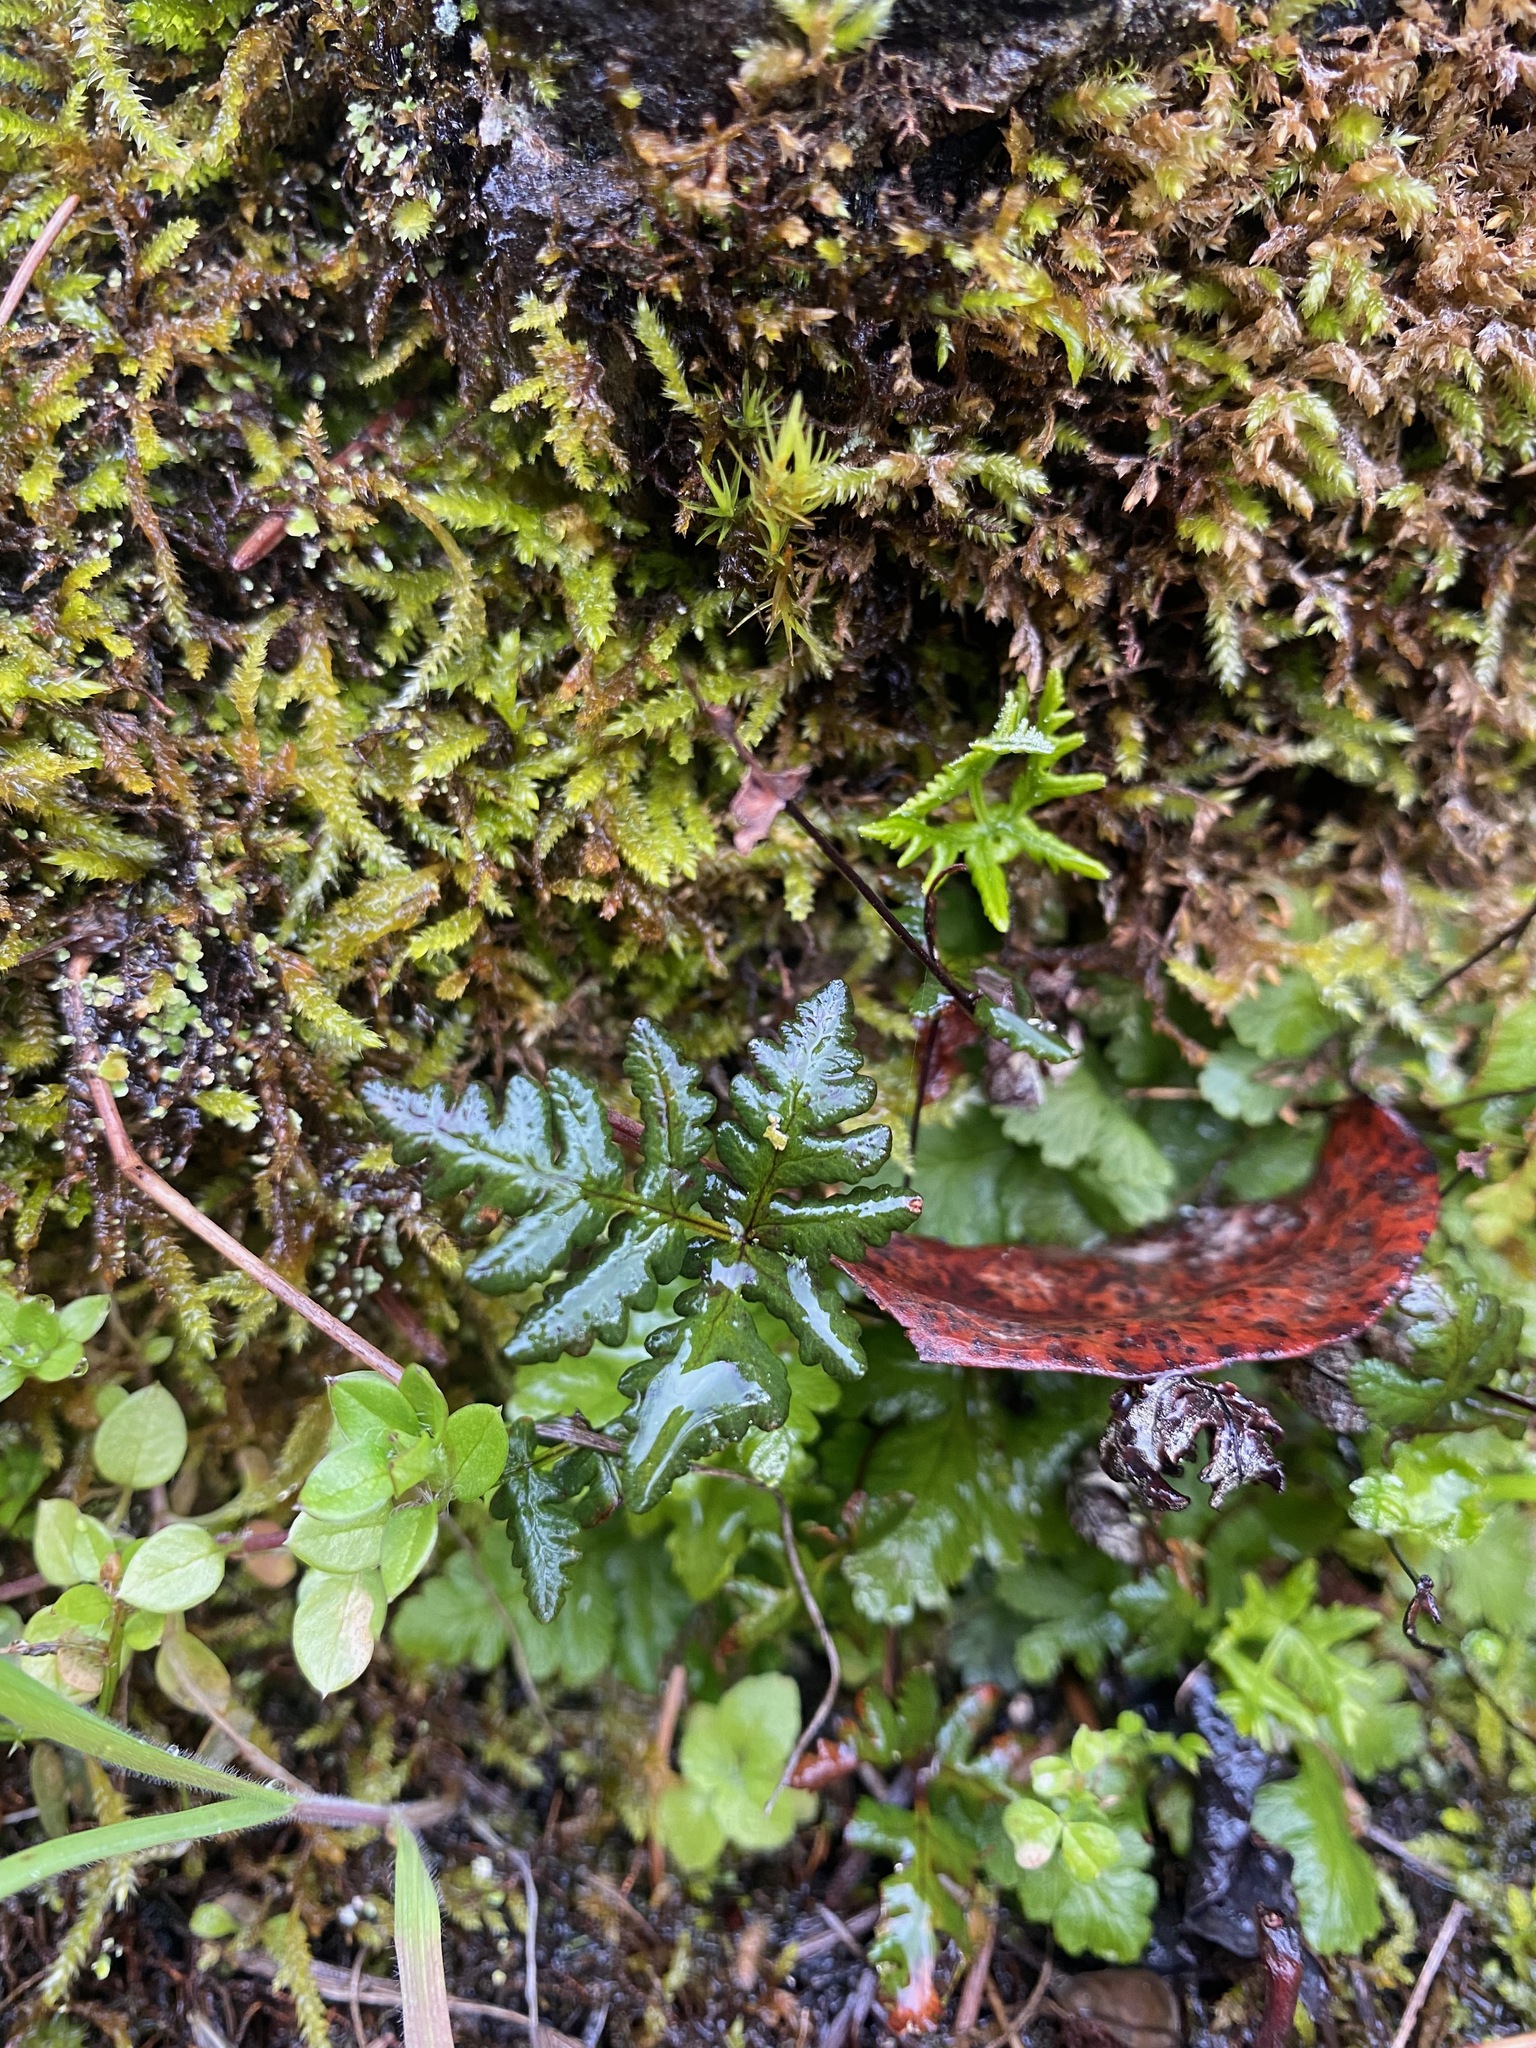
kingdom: Plantae
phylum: Tracheophyta
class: Polypodiopsida
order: Polypodiales
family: Pteridaceae
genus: Pentagramma
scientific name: Pentagramma triangularis
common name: Gold fern
